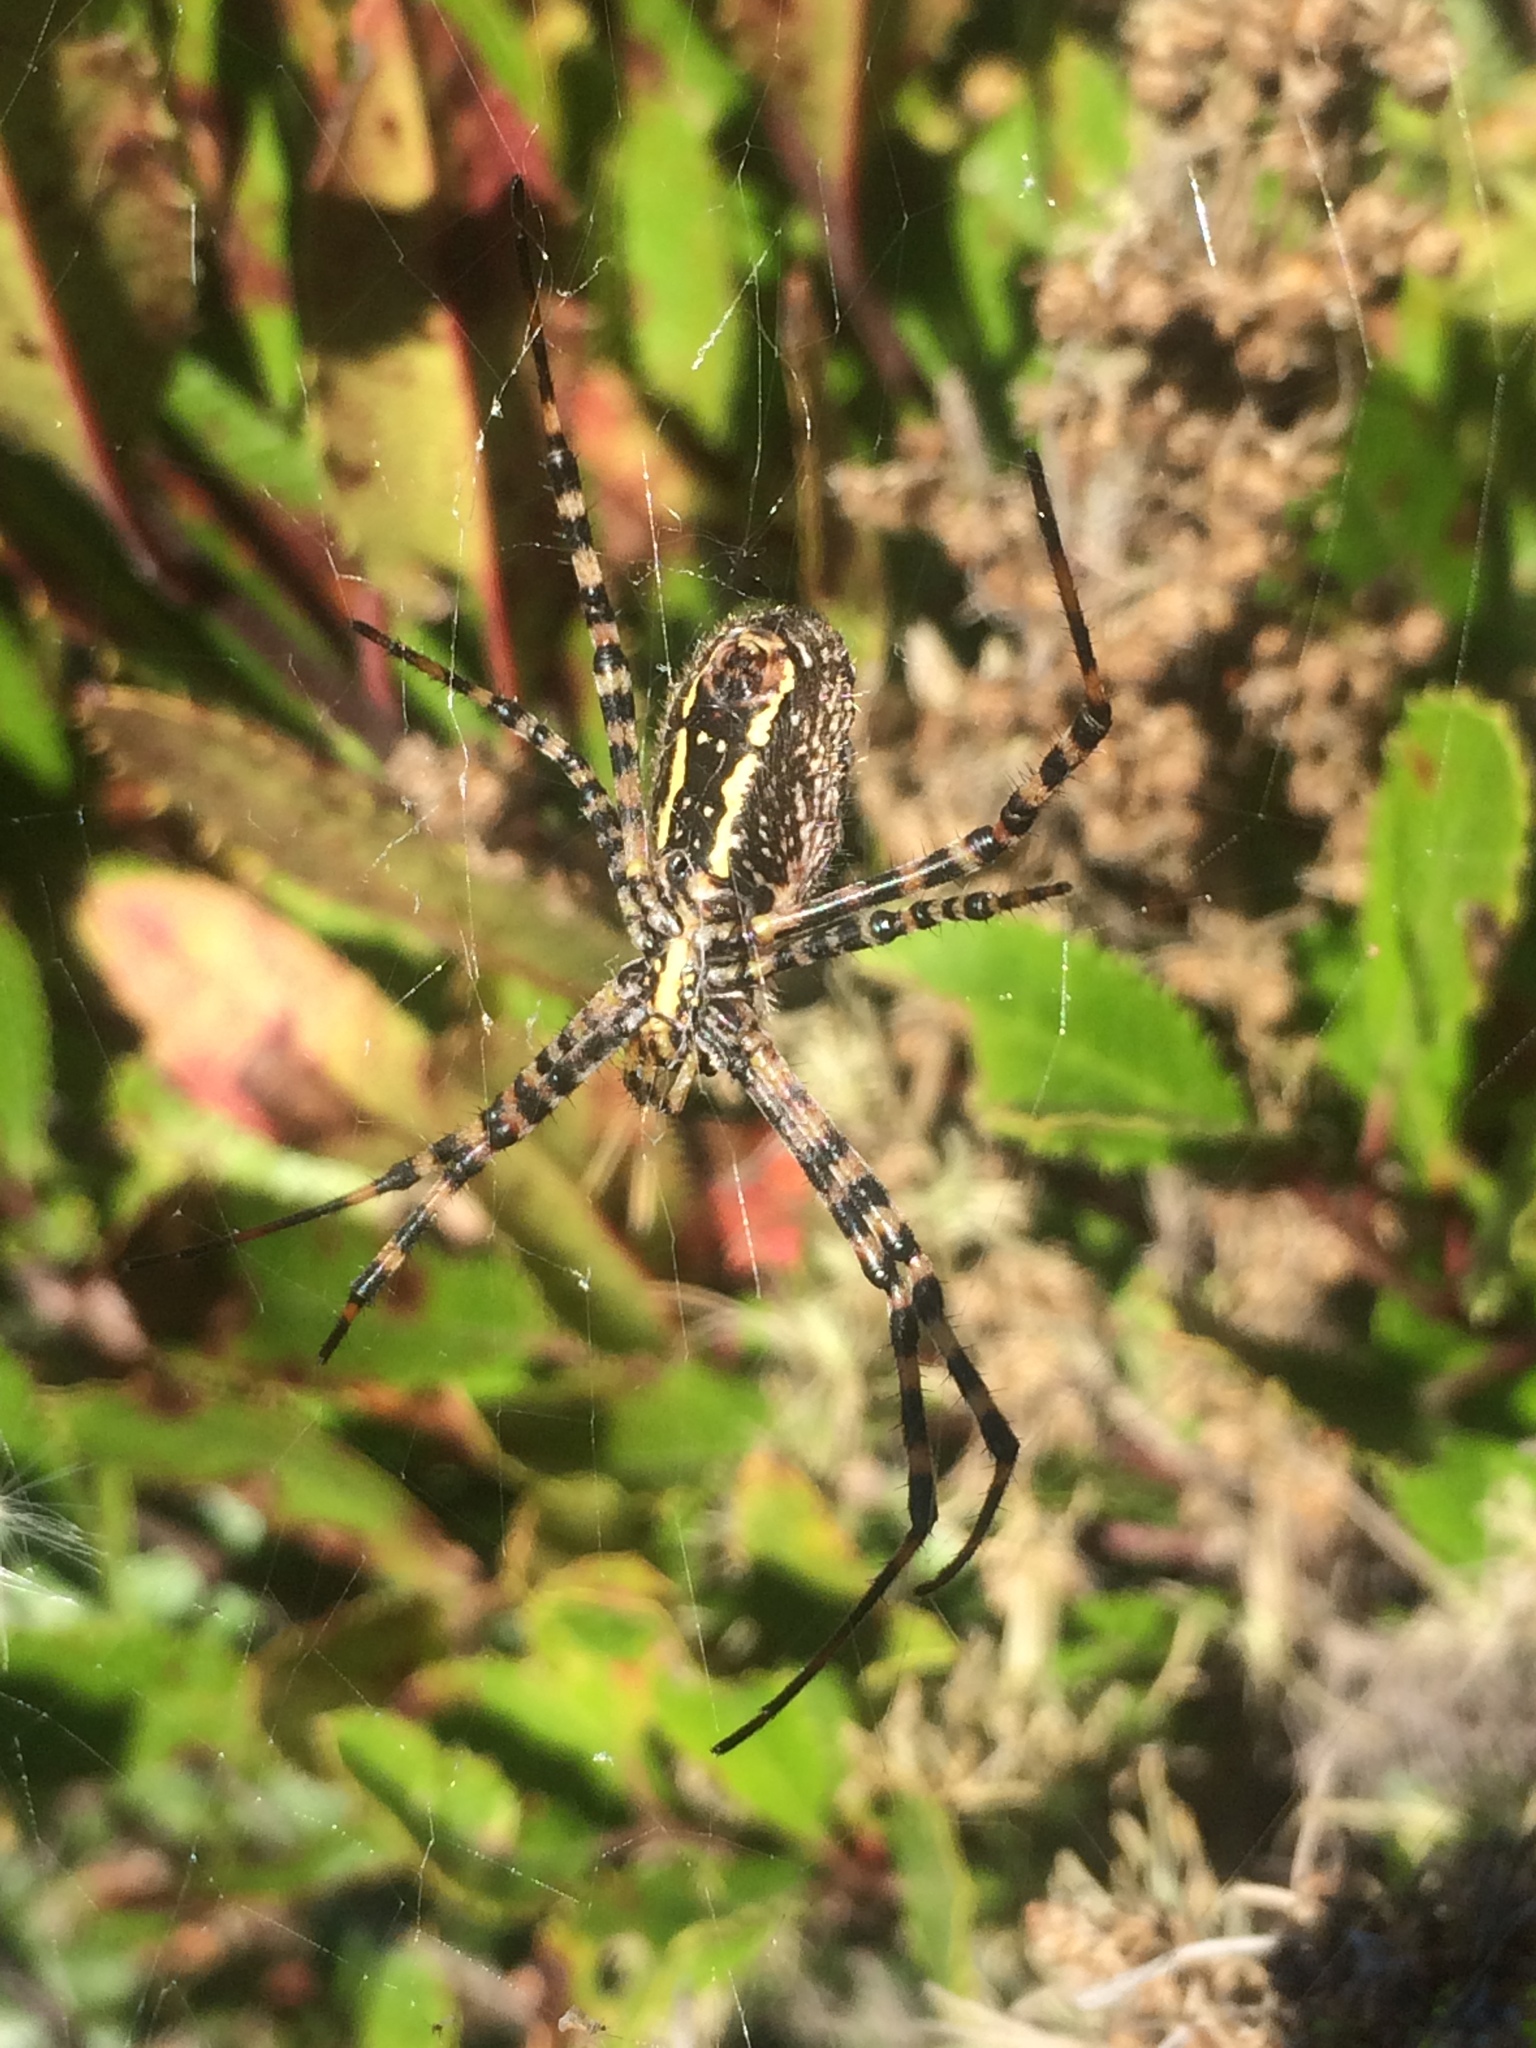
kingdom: Animalia
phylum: Arthropoda
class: Arachnida
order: Araneae
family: Araneidae
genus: Argiope
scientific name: Argiope trifasciata
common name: Banded garden spider
